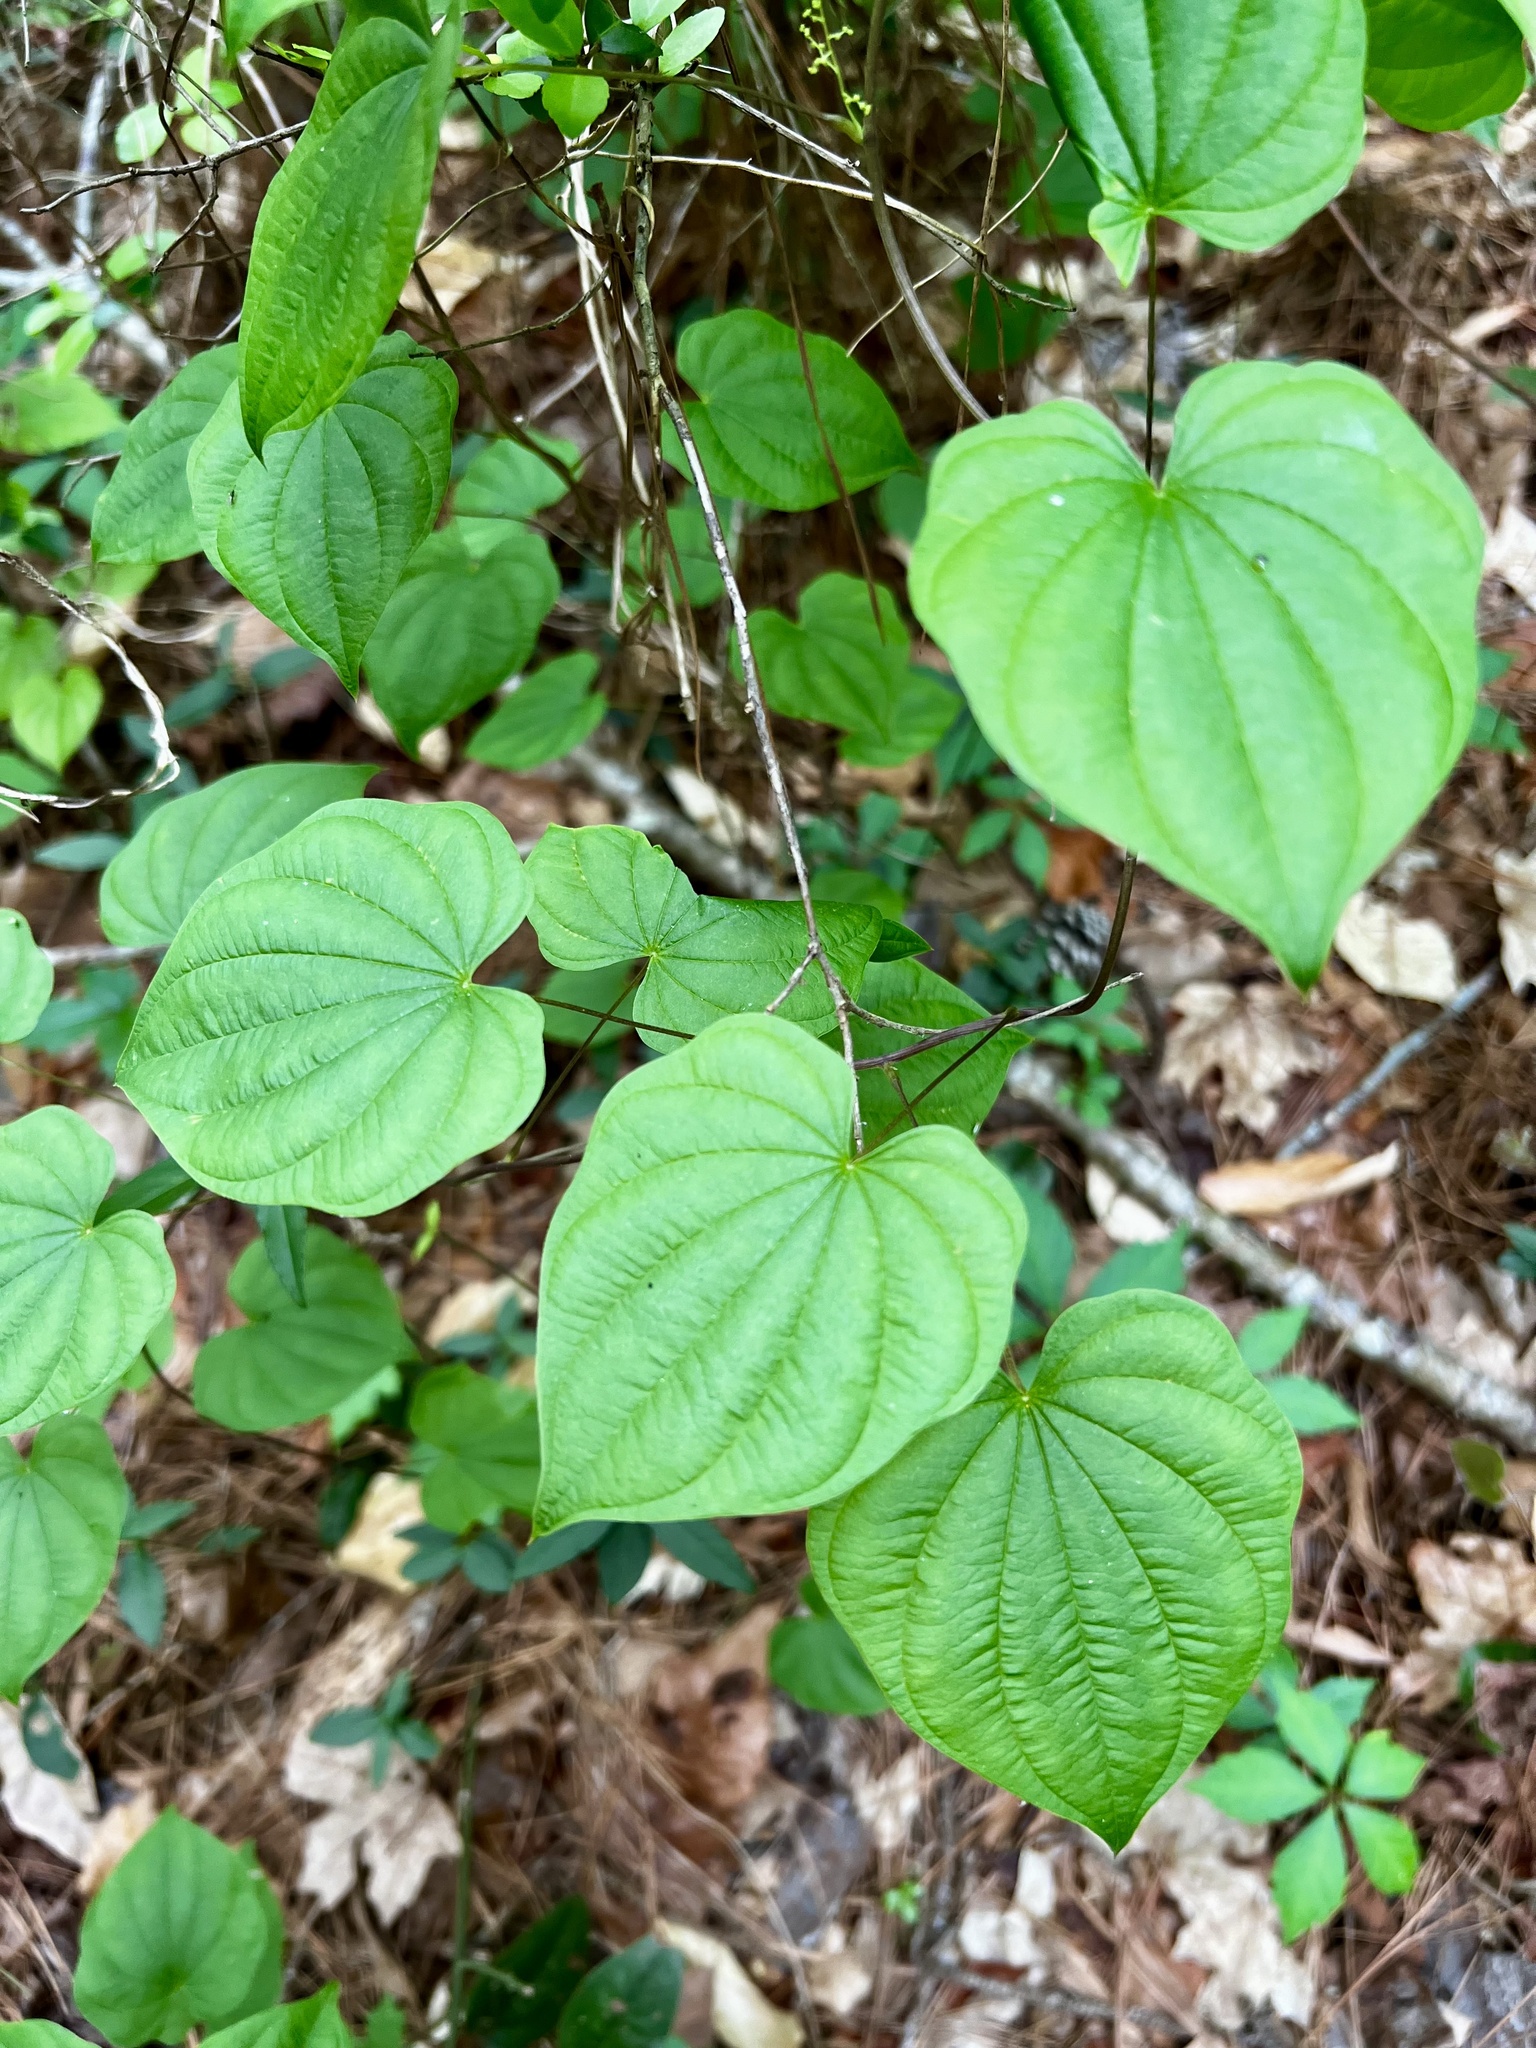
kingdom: Plantae
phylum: Tracheophyta
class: Liliopsida
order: Dioscoreales
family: Dioscoreaceae
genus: Dioscorea
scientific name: Dioscorea villosa
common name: Wild yam
